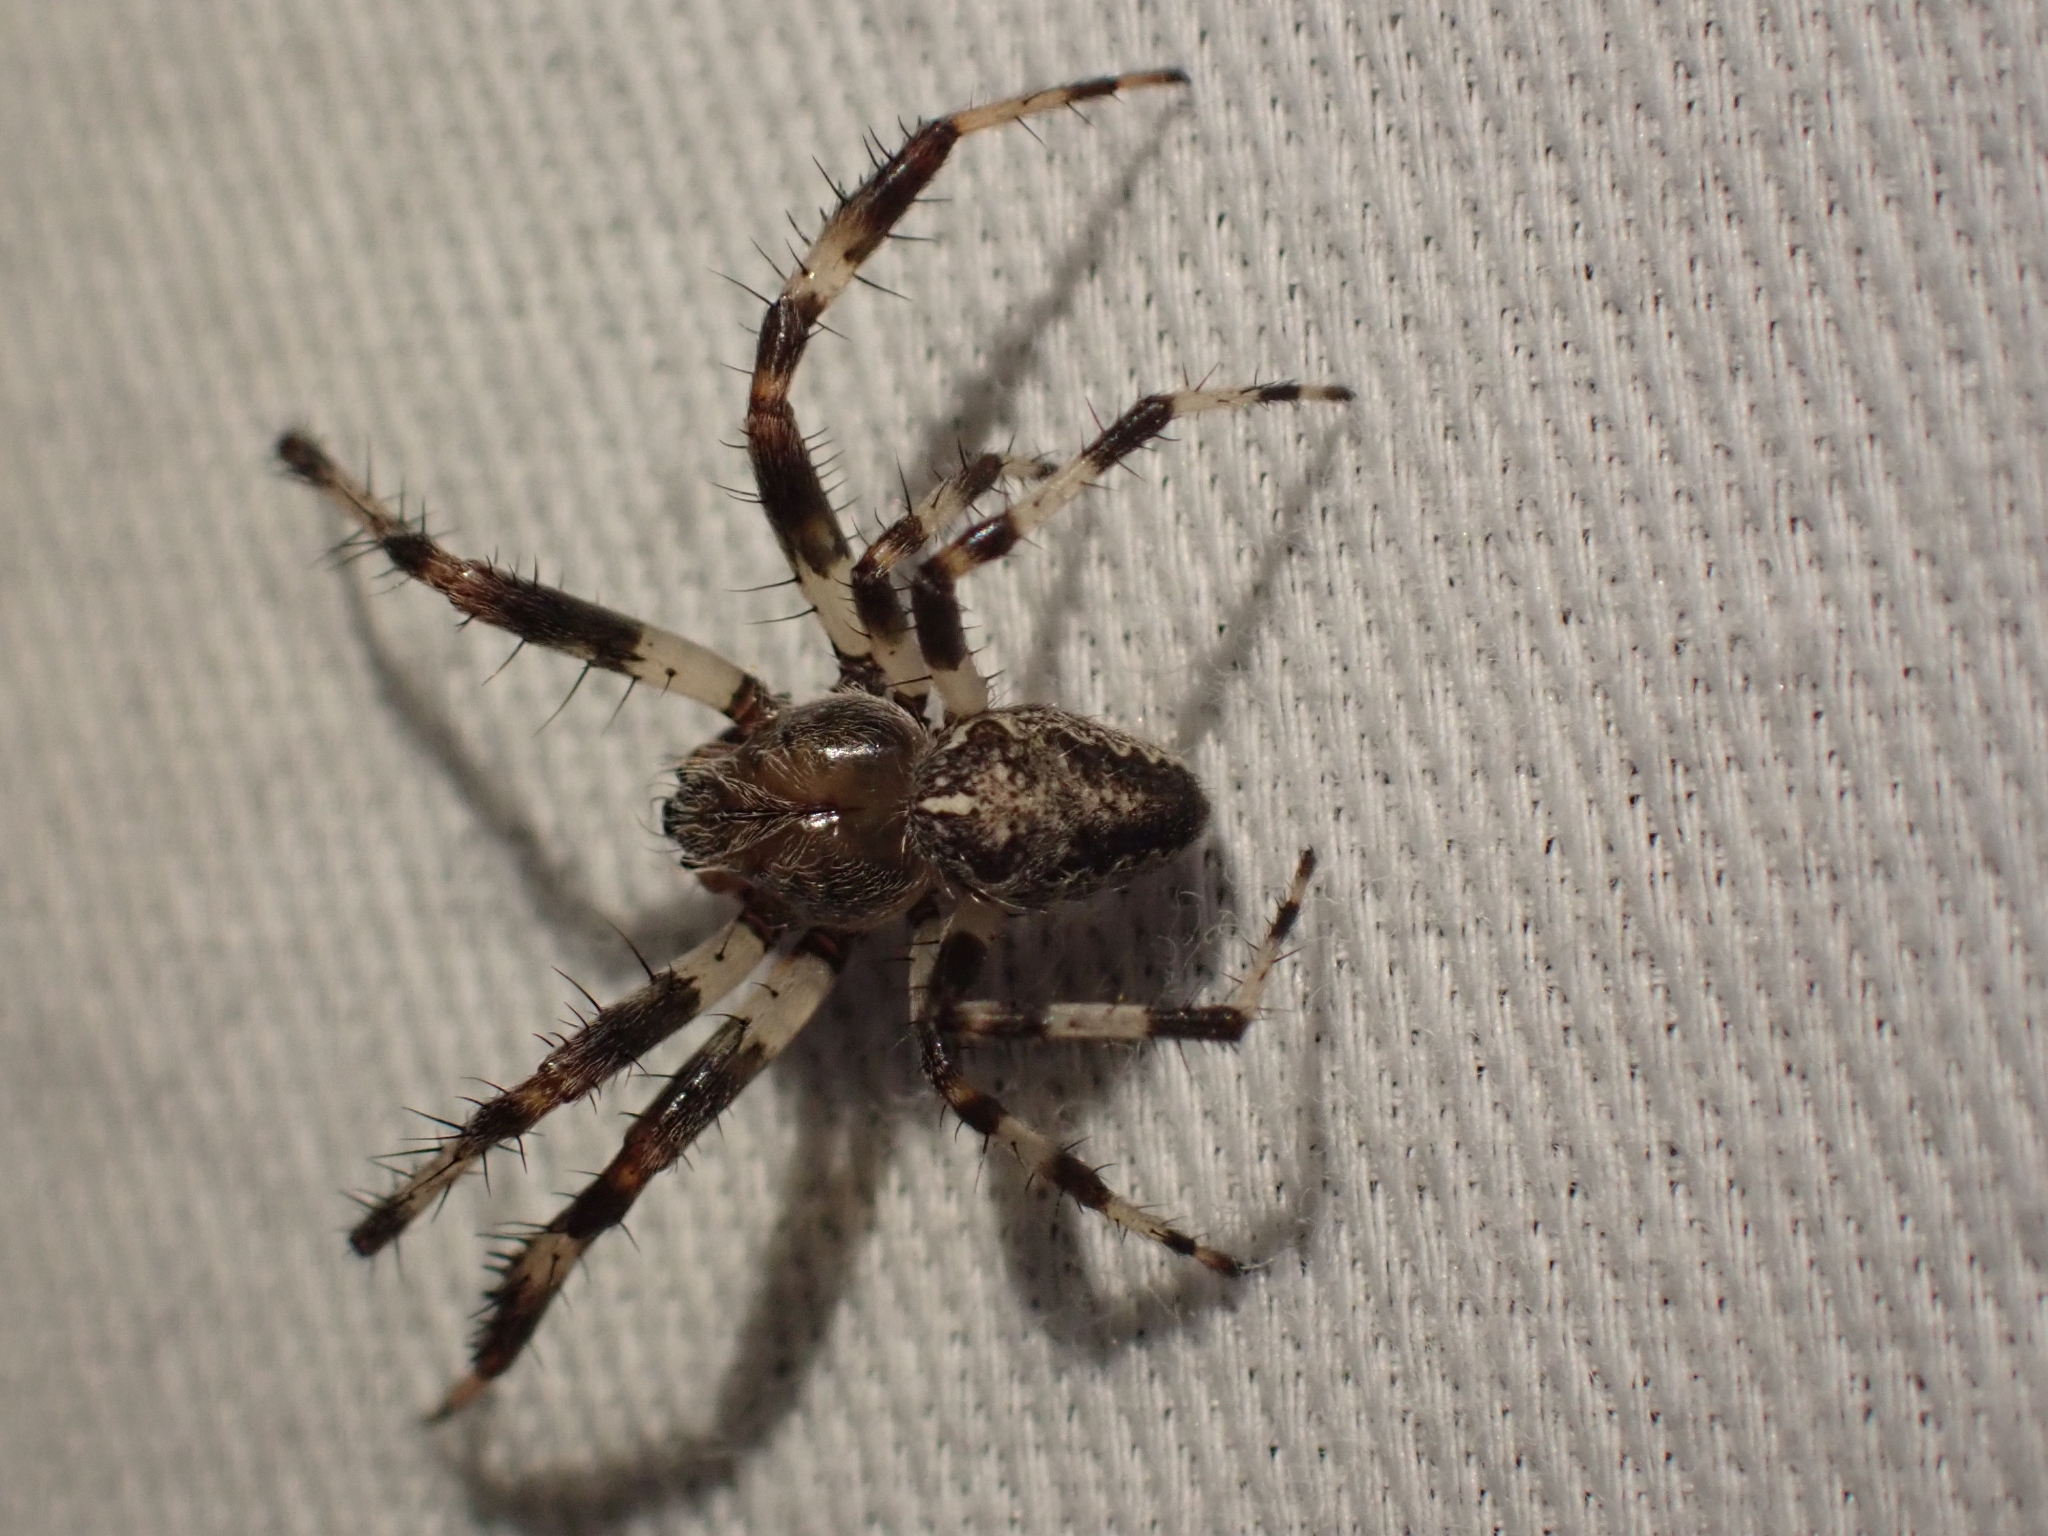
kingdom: Animalia
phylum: Arthropoda
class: Arachnida
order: Araneae
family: Araneidae
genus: Araneus
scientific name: Araneus marmoreus
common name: Marbled orbweaver
